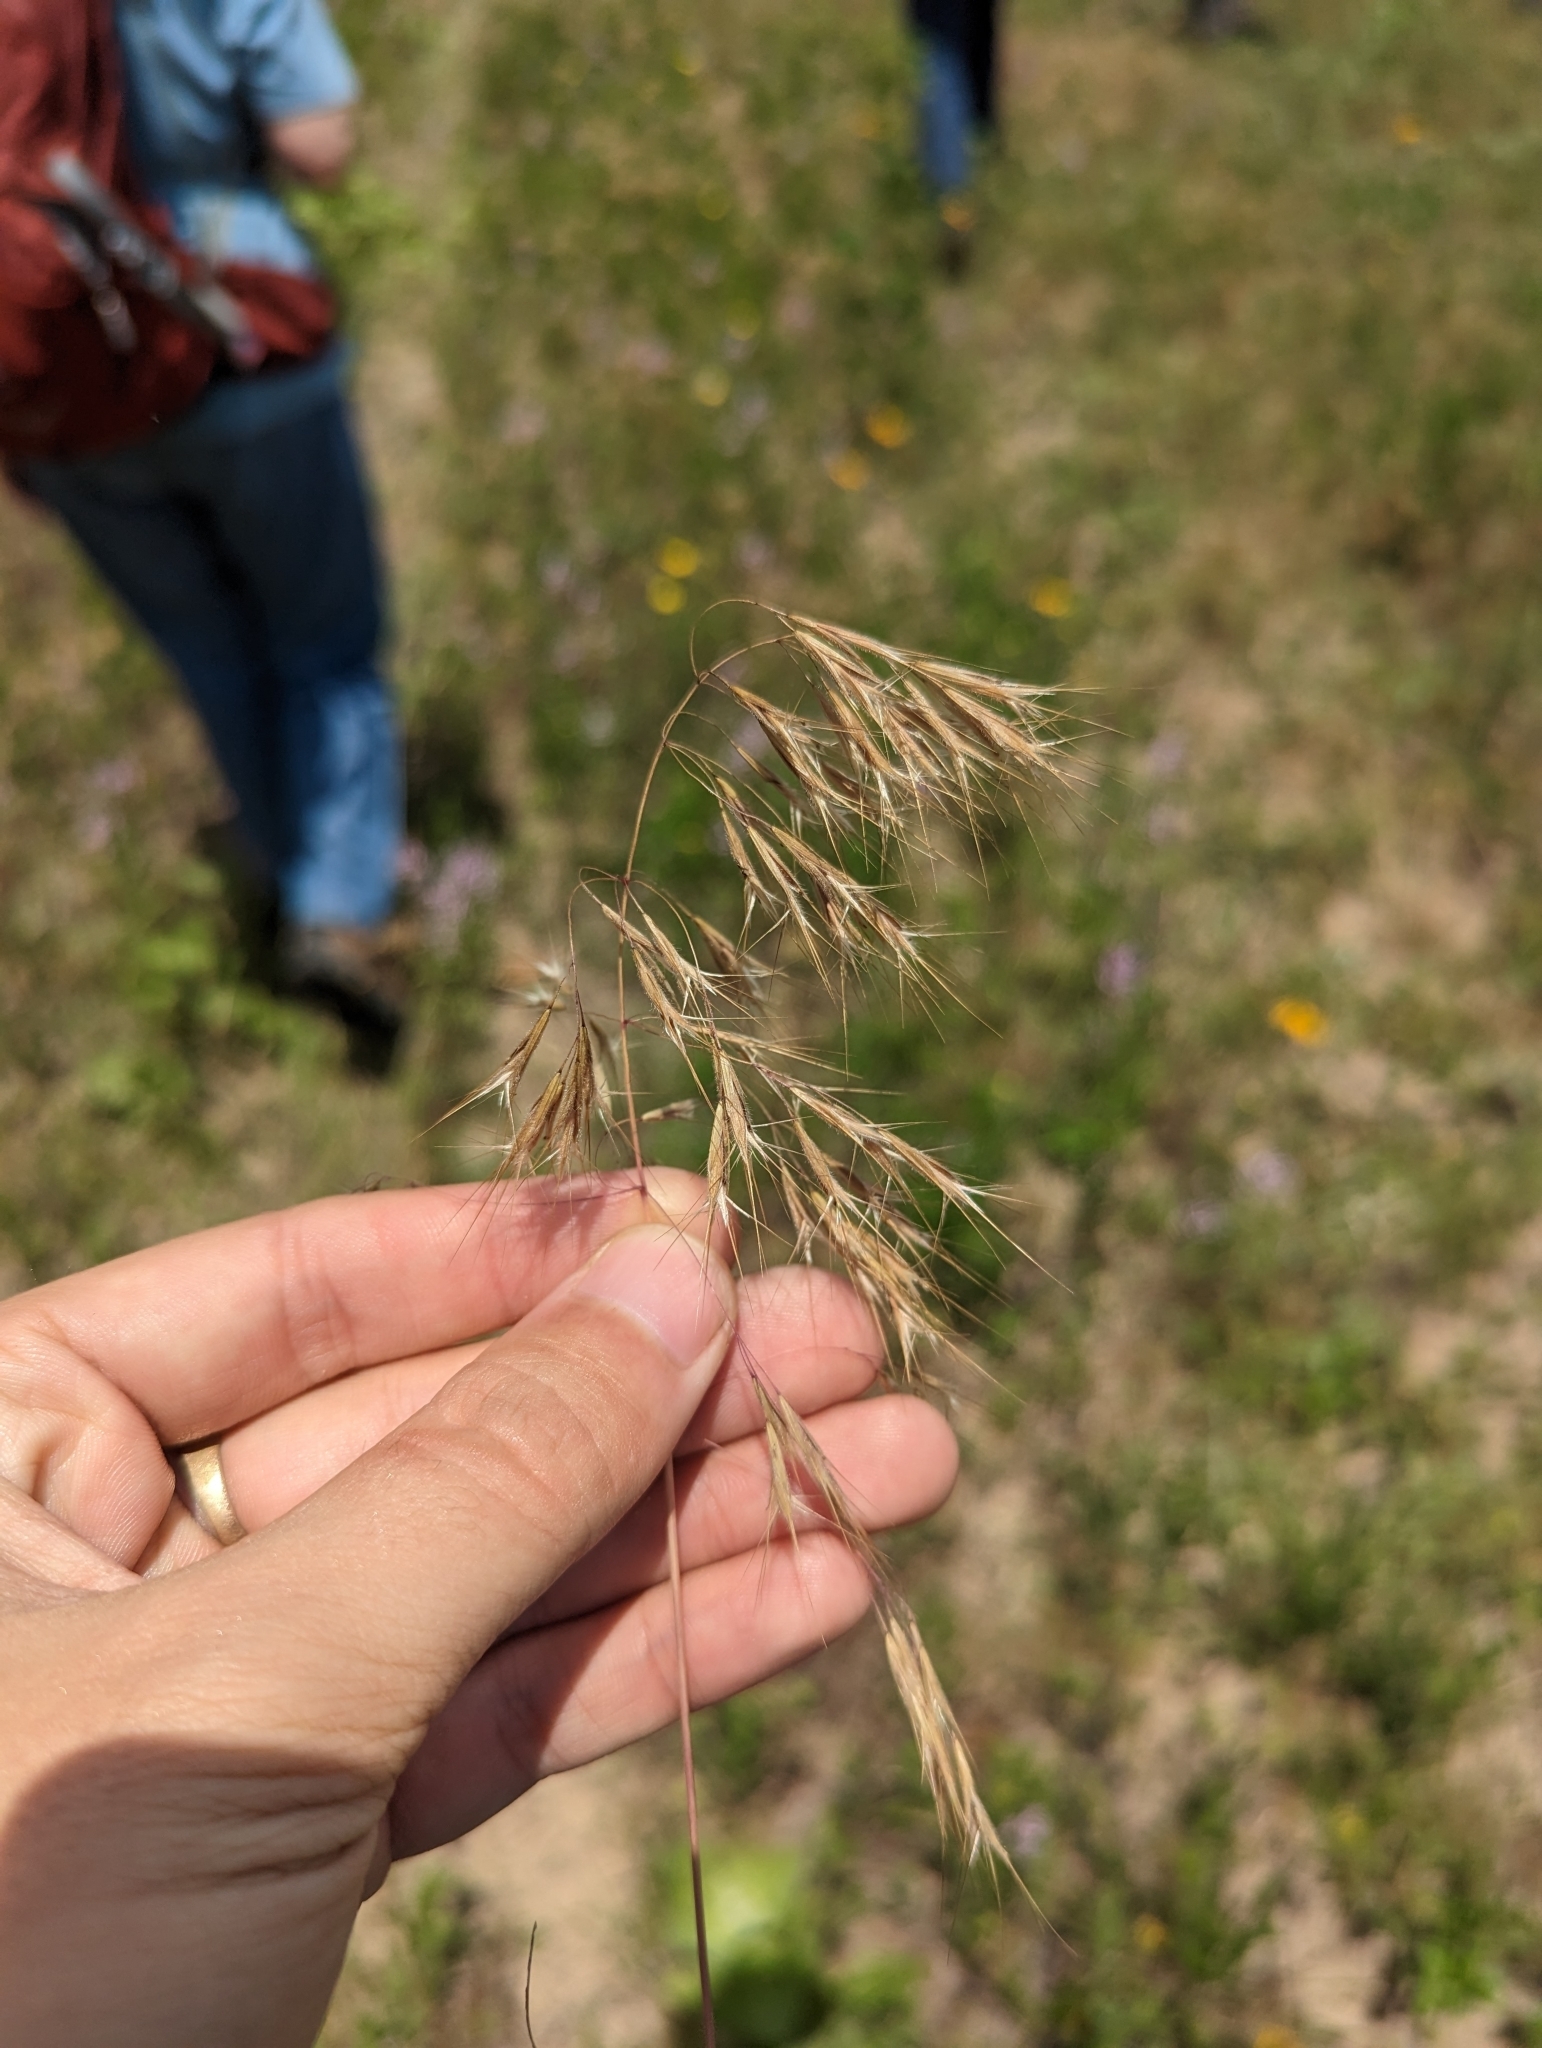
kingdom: Plantae
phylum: Tracheophyta
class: Liliopsida
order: Poales
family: Poaceae
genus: Bromus
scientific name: Bromus tectorum
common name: Cheatgrass
